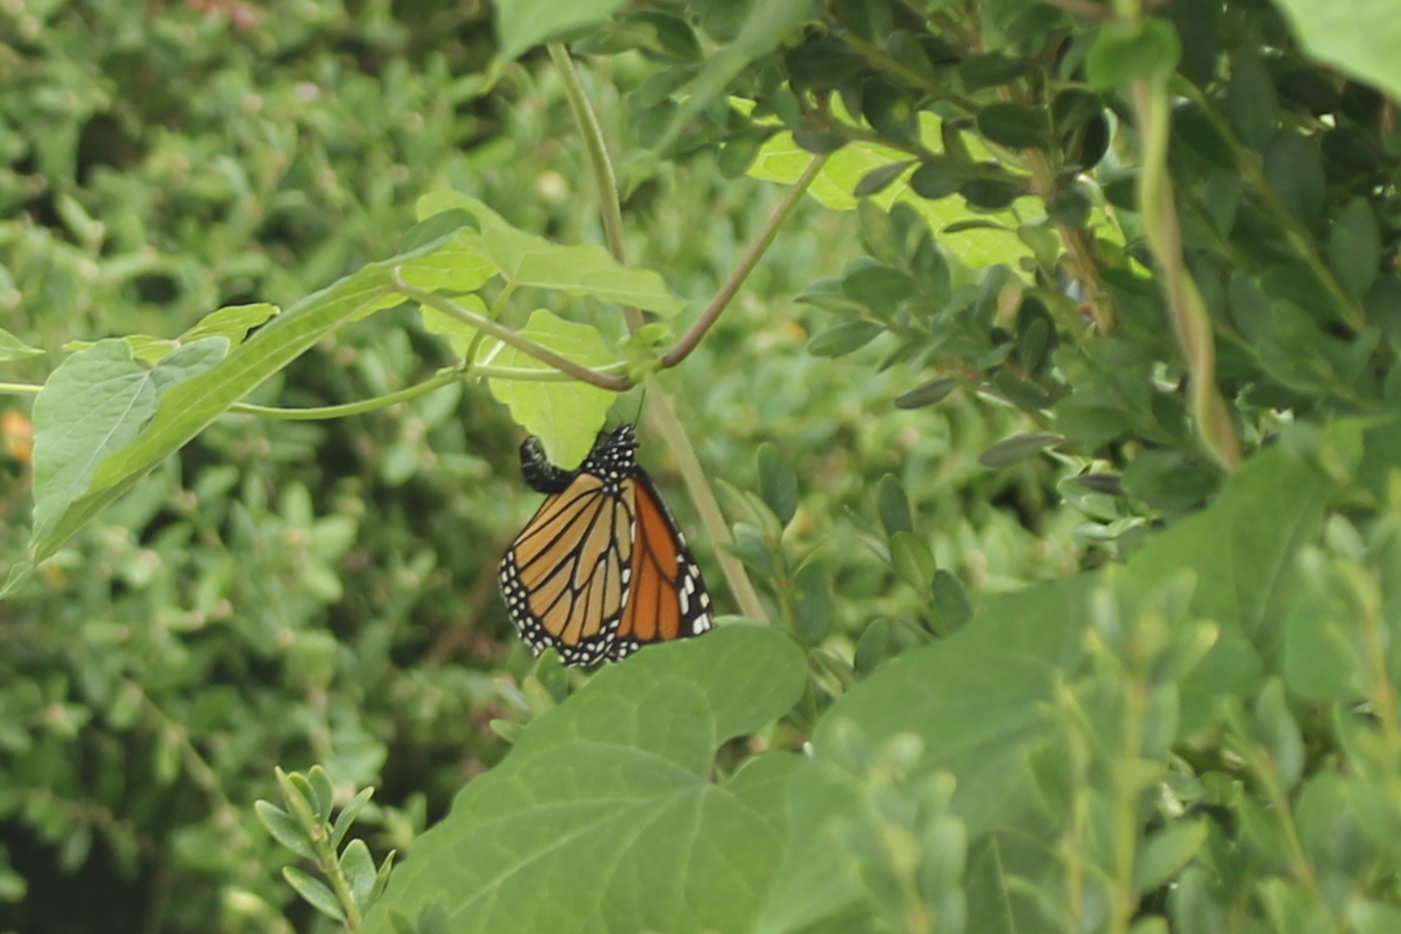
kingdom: Animalia
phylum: Arthropoda
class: Insecta
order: Lepidoptera
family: Nymphalidae
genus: Danaus
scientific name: Danaus plexippus
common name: Monarch
